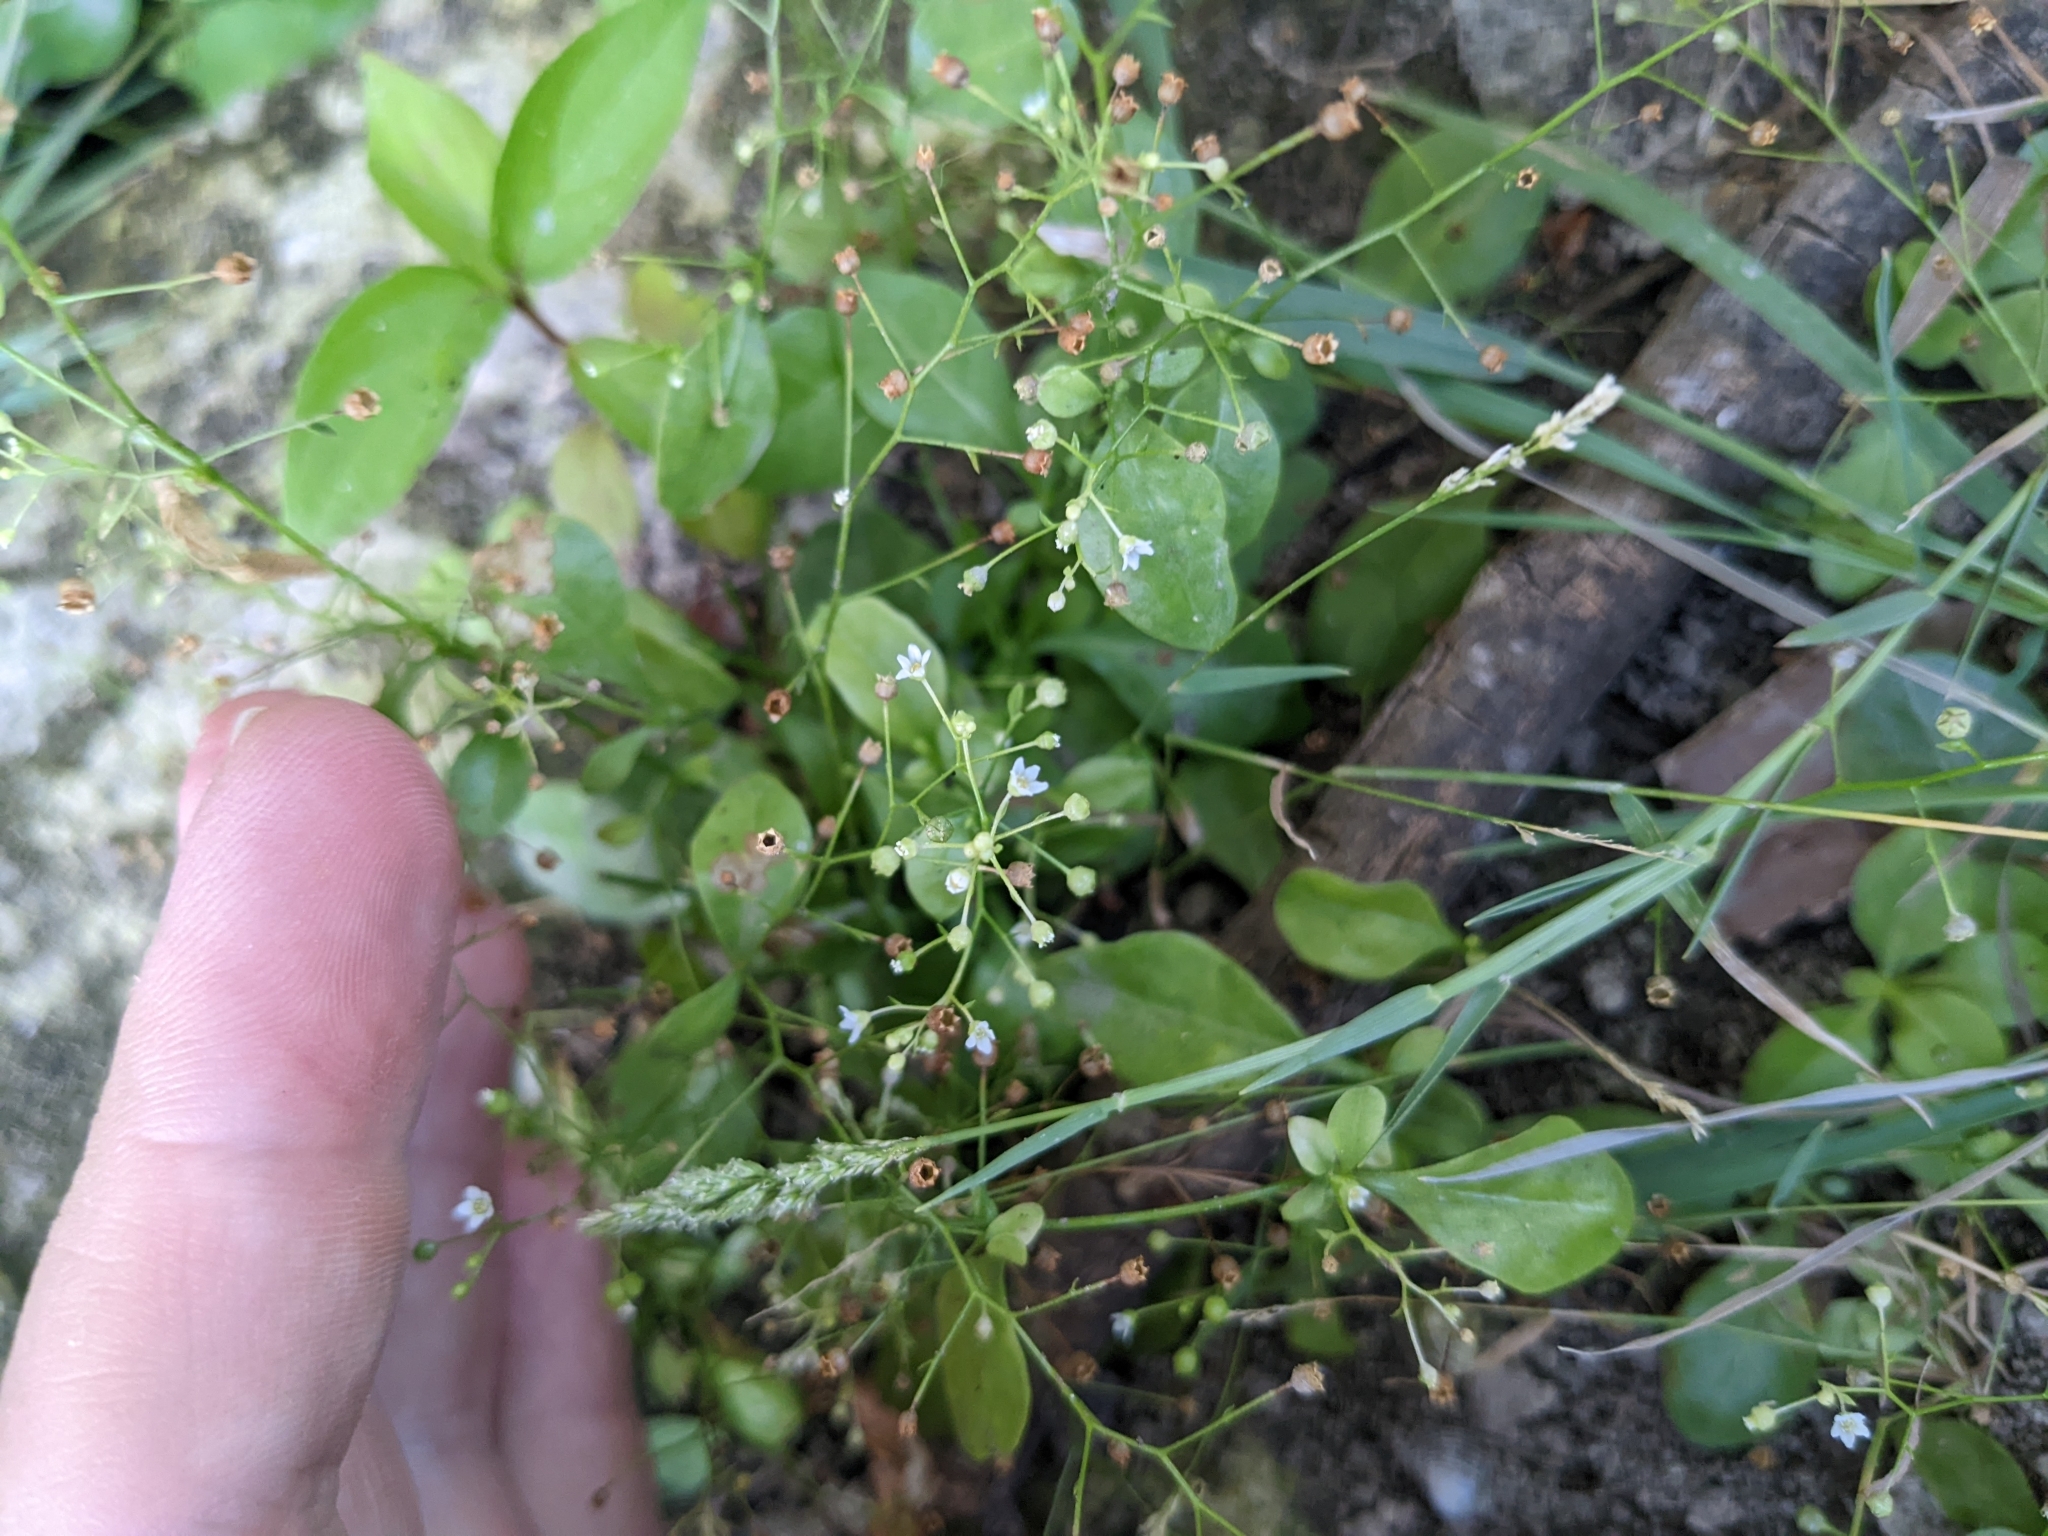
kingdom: Plantae
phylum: Tracheophyta
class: Magnoliopsida
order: Ericales
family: Primulaceae
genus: Samolus
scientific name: Samolus parviflorus
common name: False water pimpernel
